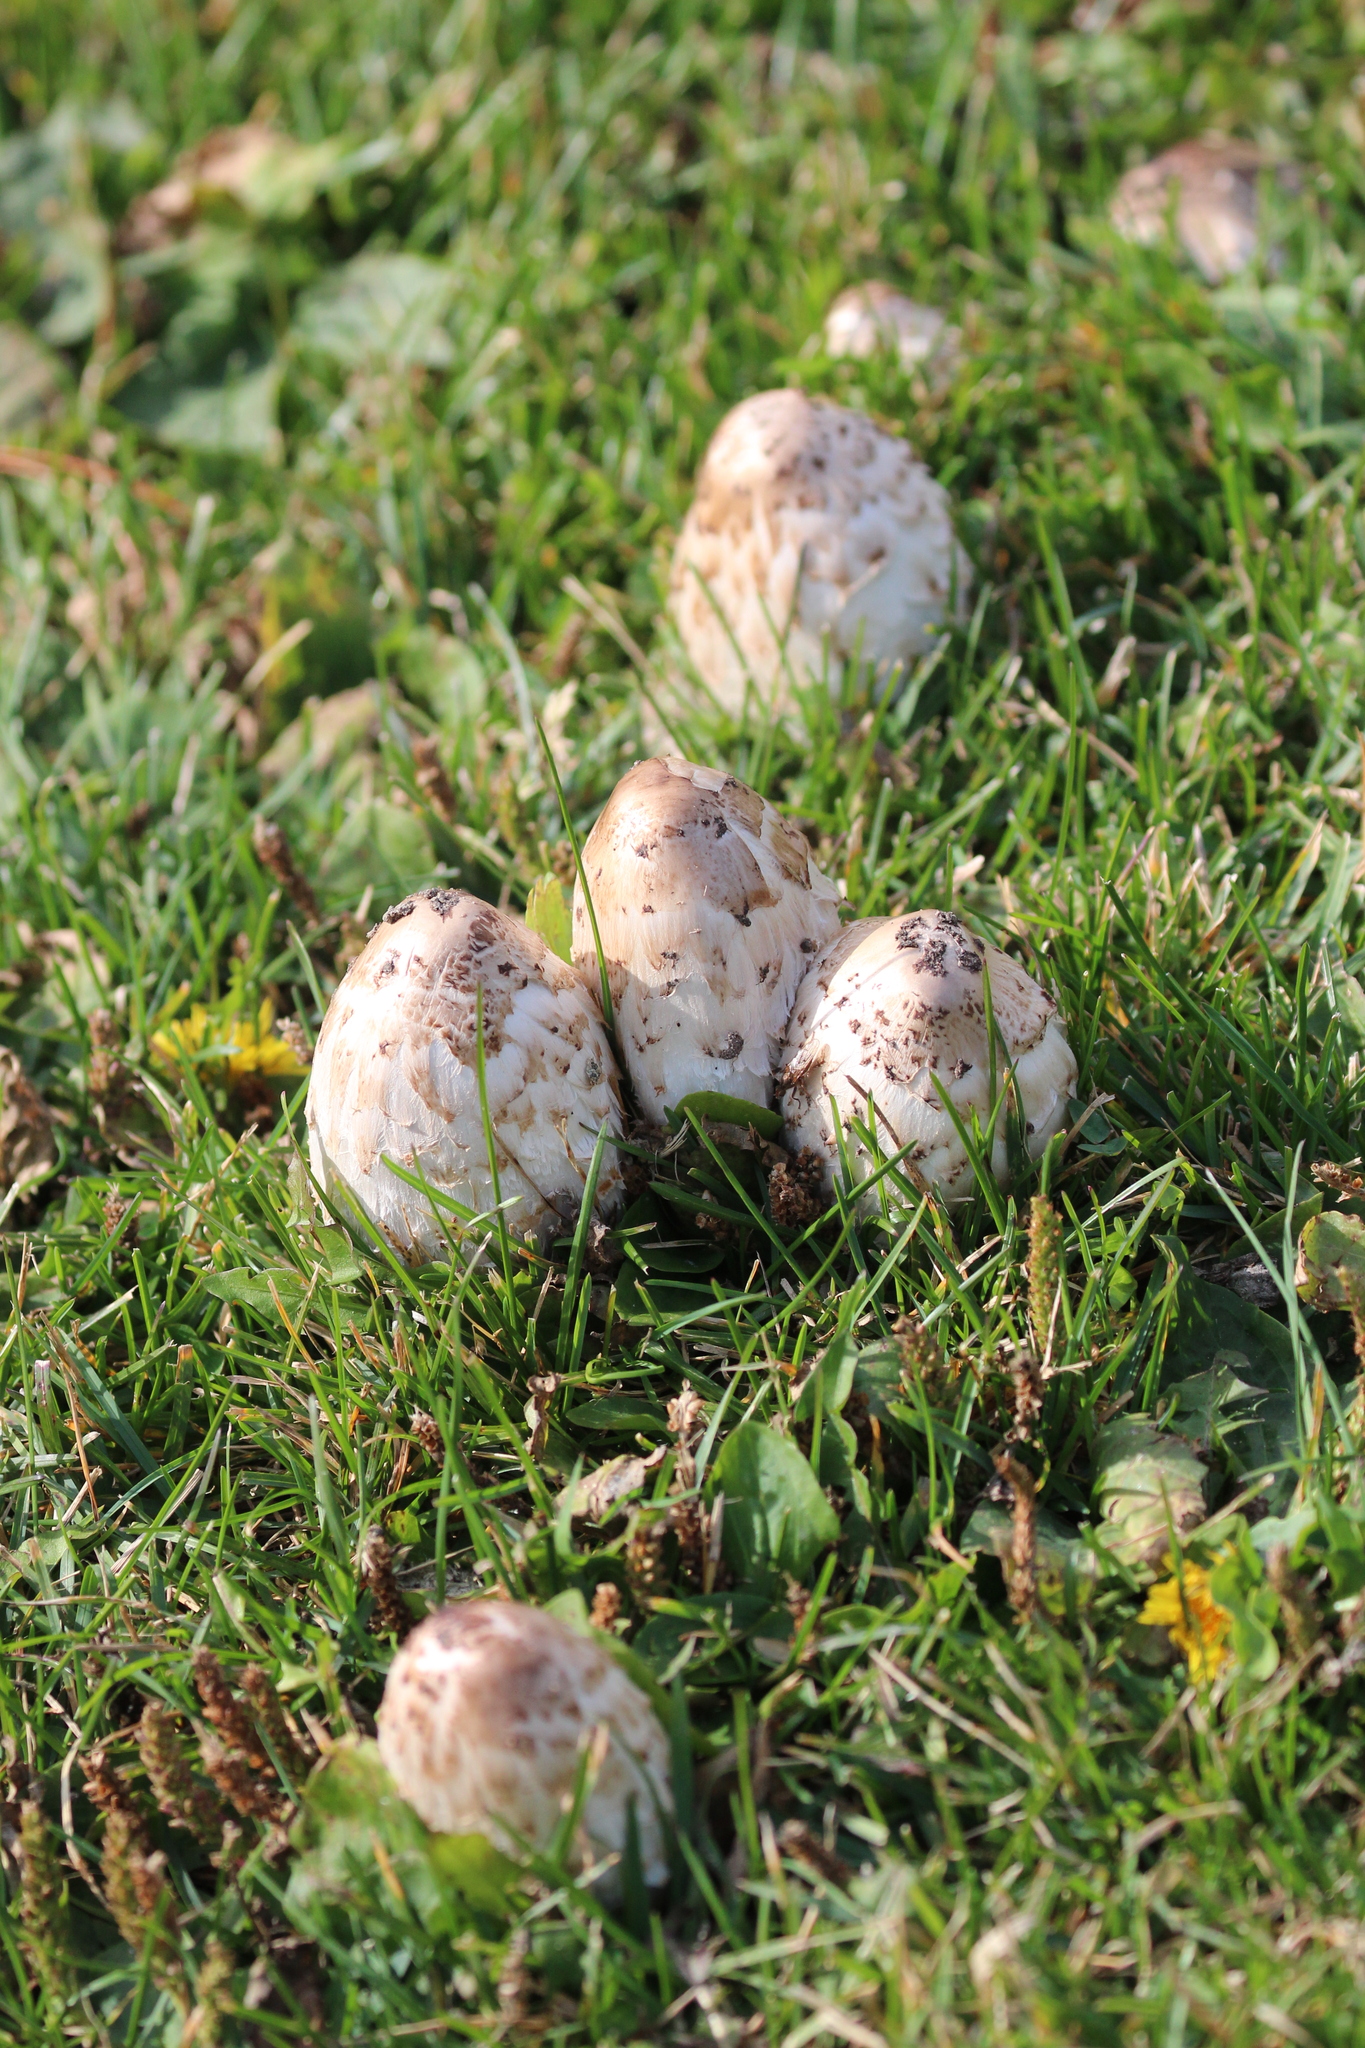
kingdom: Fungi
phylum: Basidiomycota
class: Agaricomycetes
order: Agaricales
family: Agaricaceae
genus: Coprinus
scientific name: Coprinus comatus
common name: Lawyer's wig
